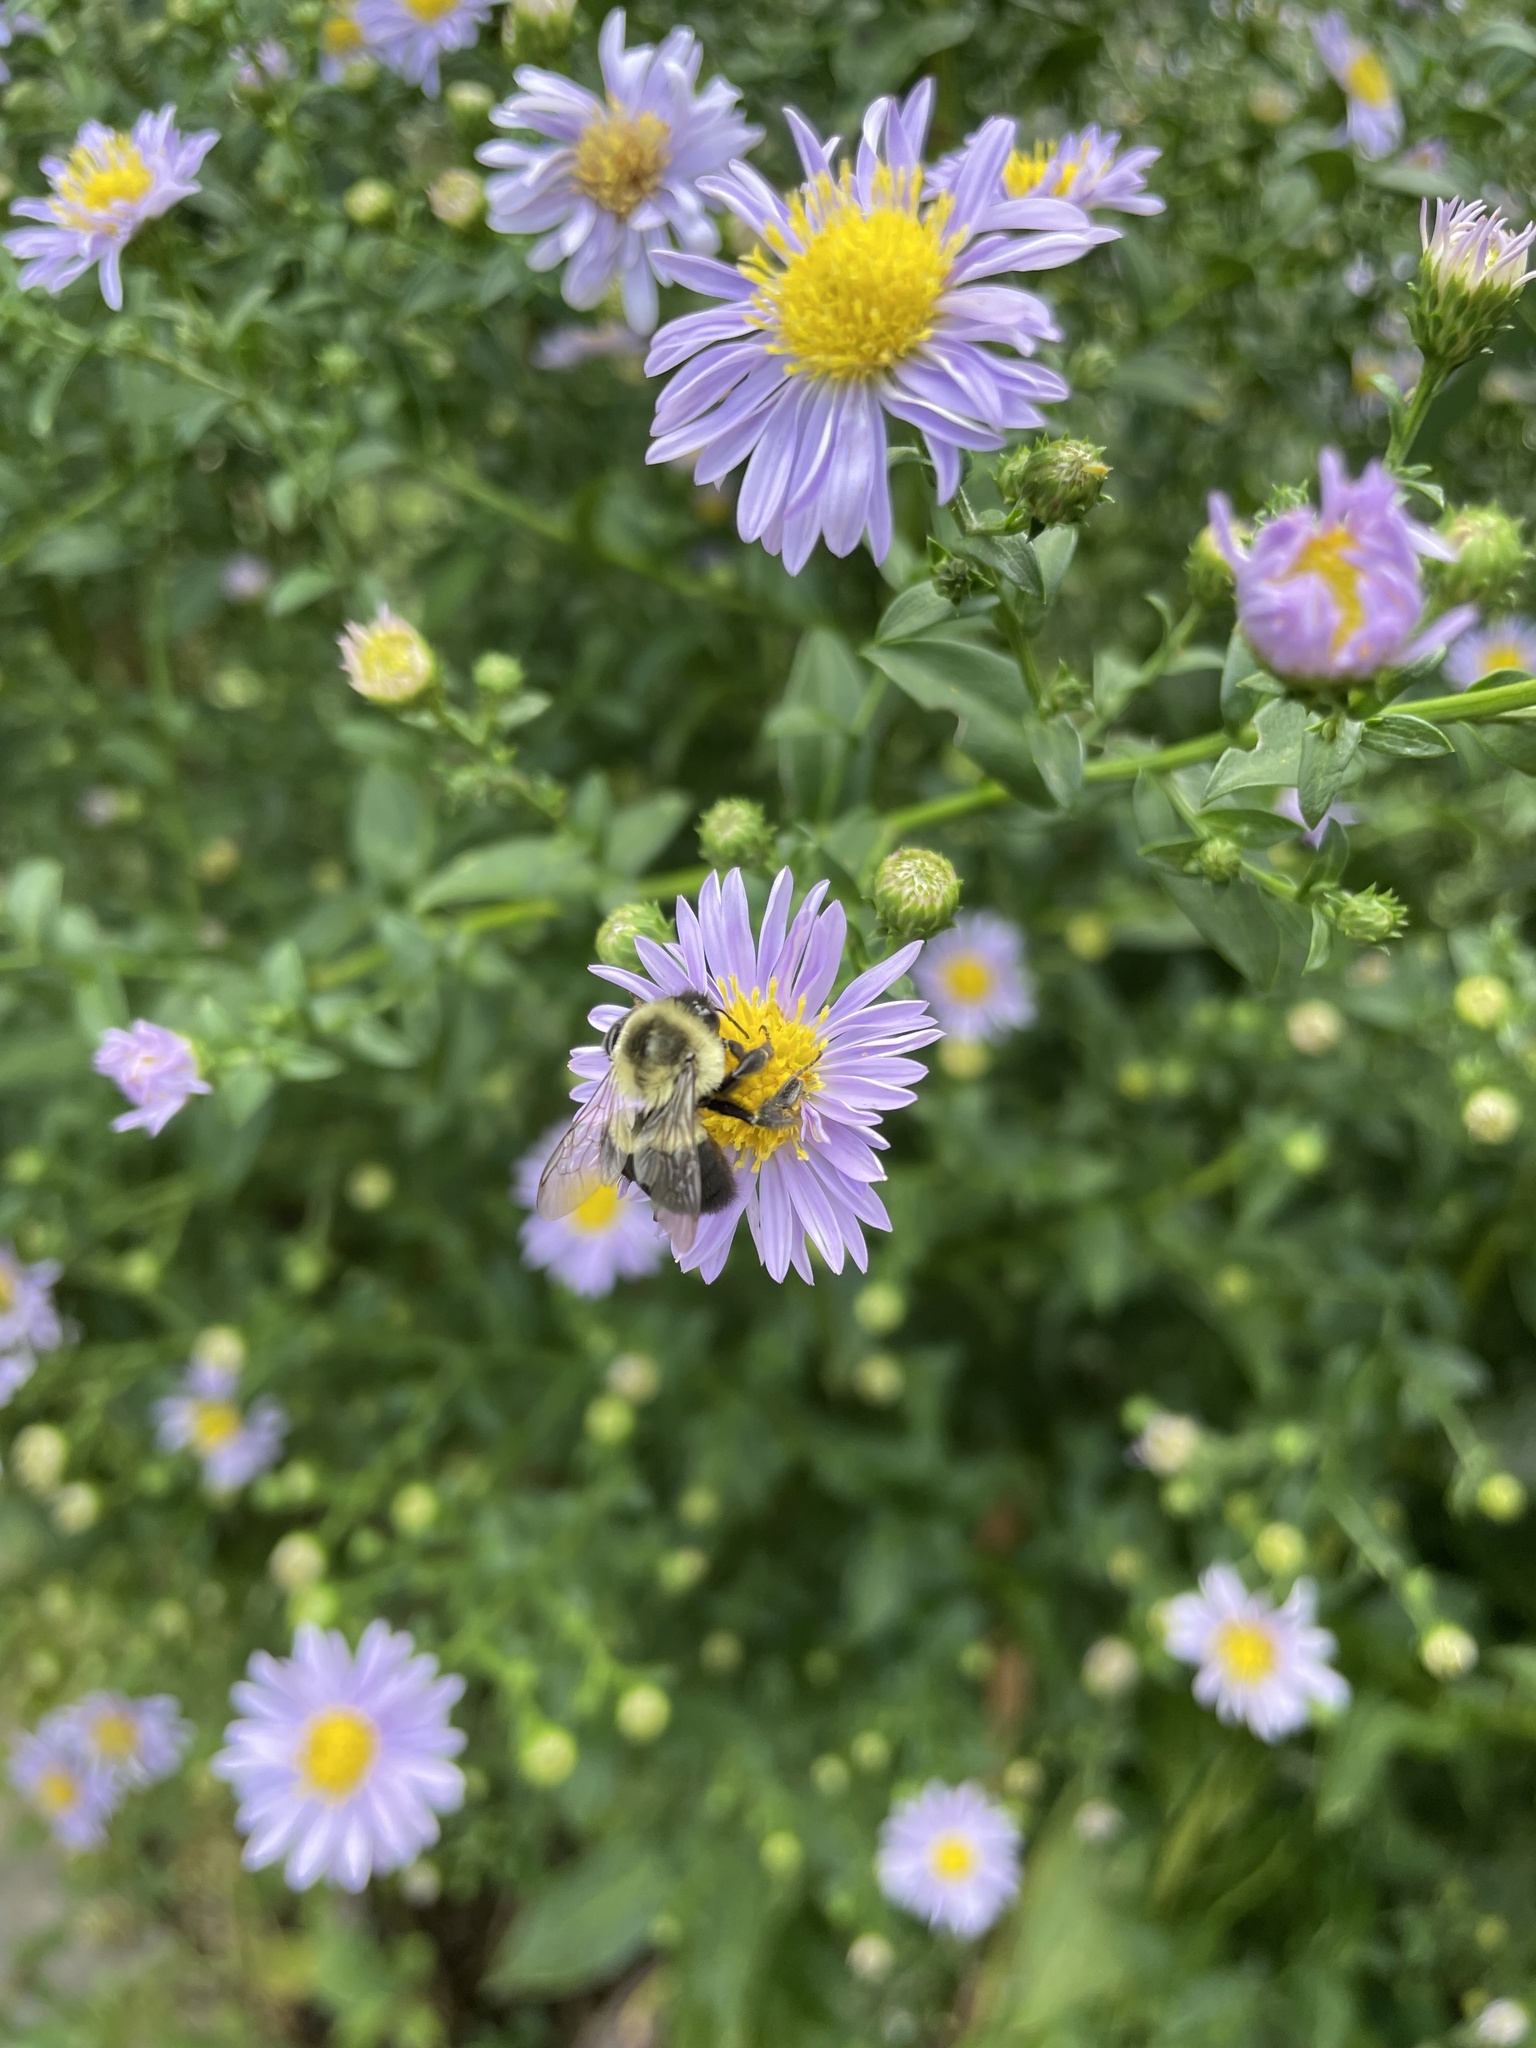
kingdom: Animalia
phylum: Arthropoda
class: Insecta
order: Hymenoptera
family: Apidae
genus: Bombus
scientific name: Bombus impatiens
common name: Common eastern bumble bee
